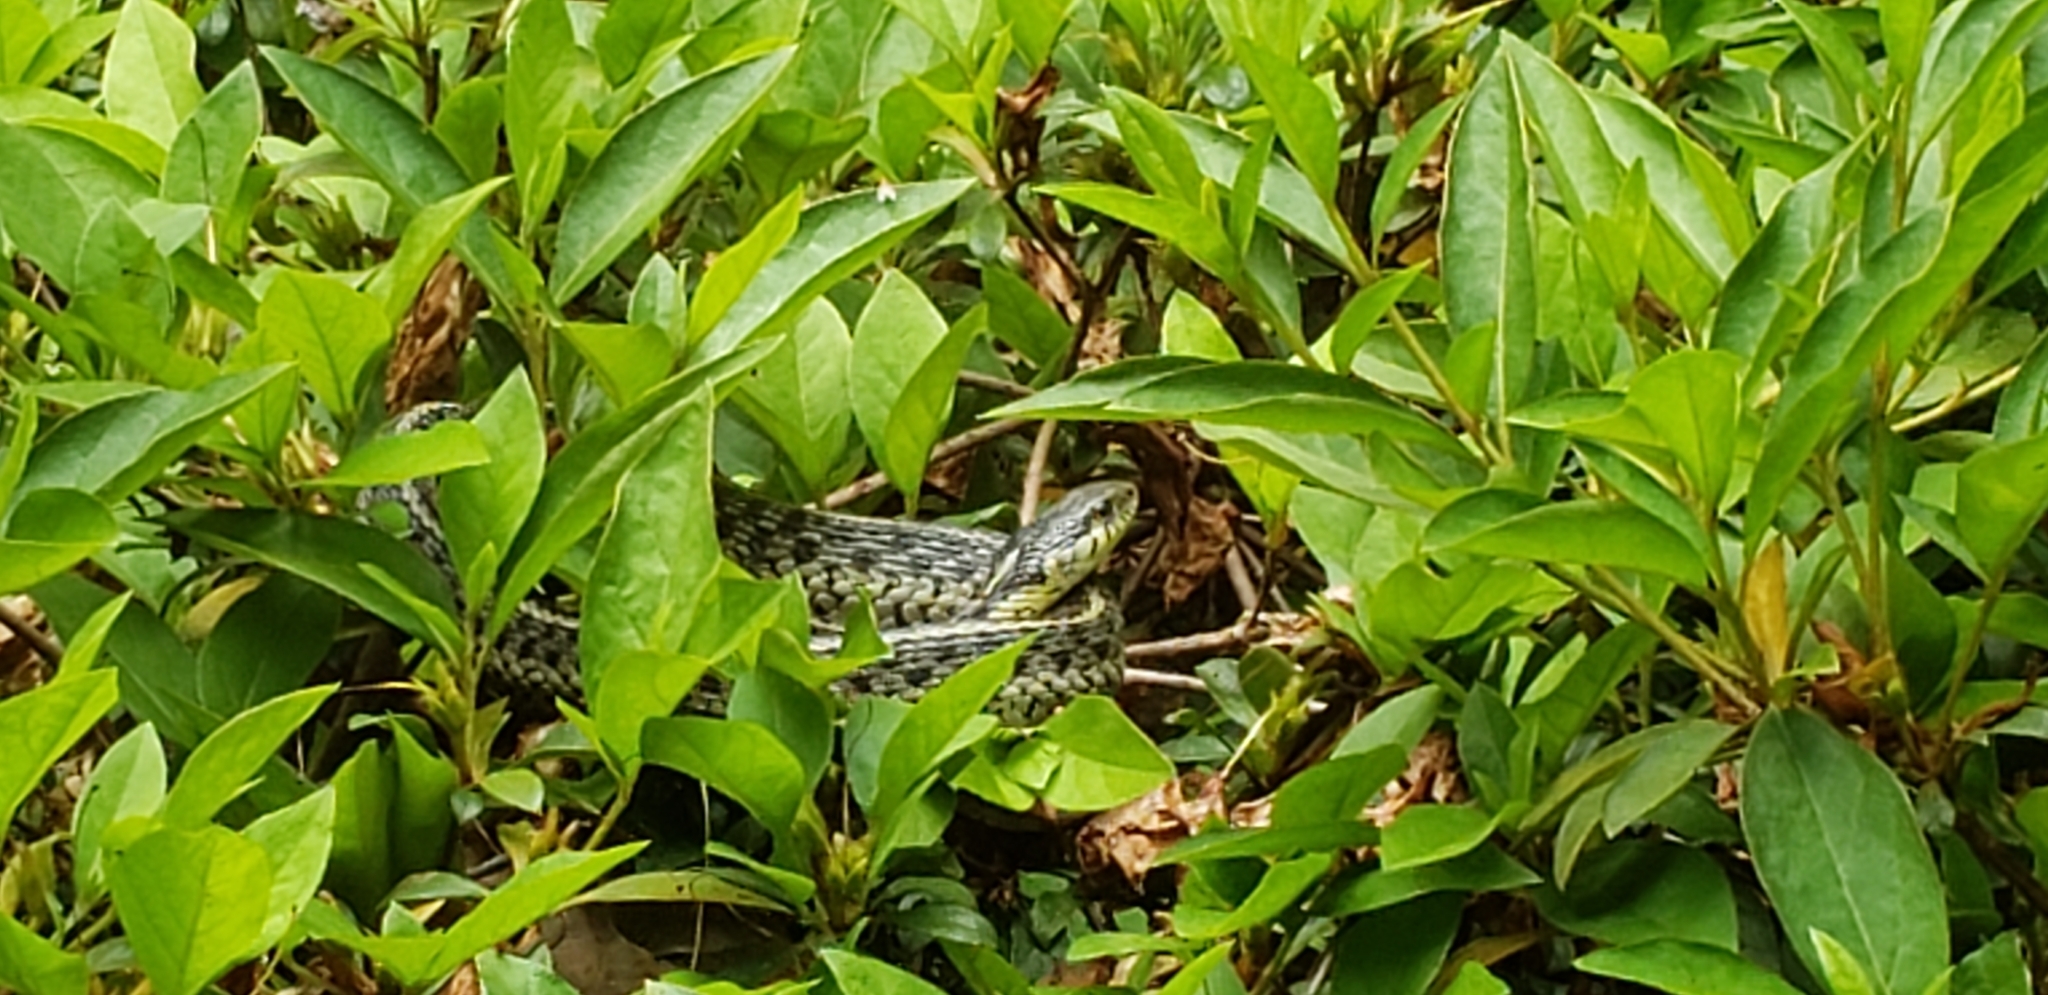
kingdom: Animalia
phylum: Chordata
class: Squamata
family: Colubridae
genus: Thamnophis
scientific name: Thamnophis sirtalis
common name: Common garter snake
